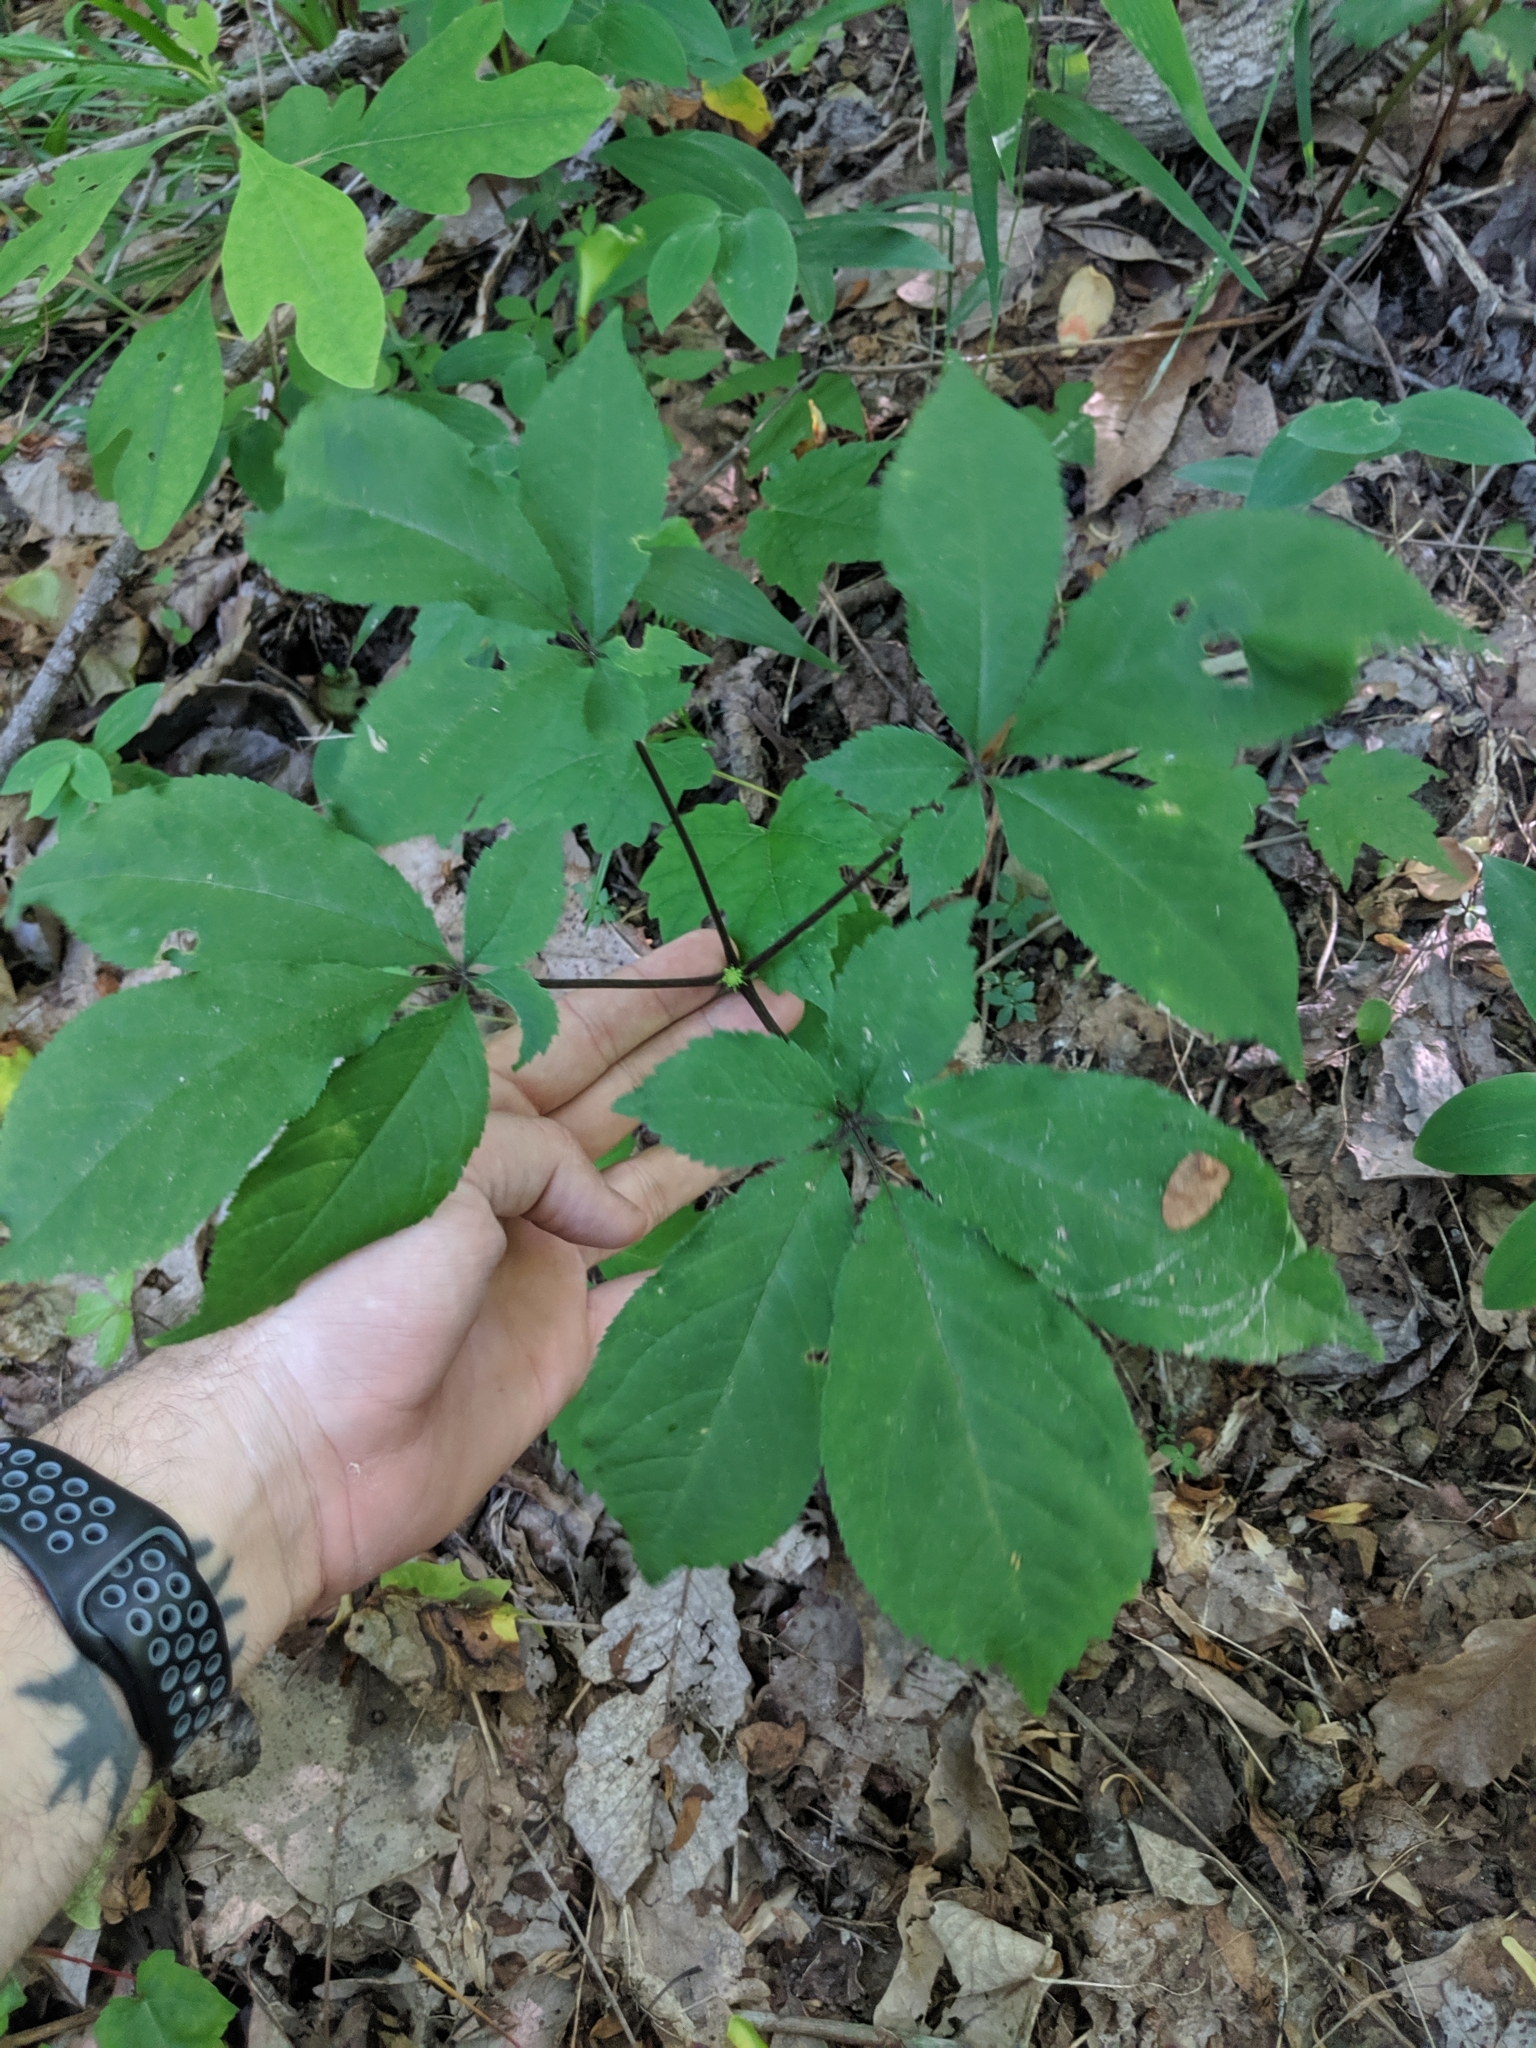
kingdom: Plantae
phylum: Tracheophyta
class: Magnoliopsida
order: Apiales
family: Araliaceae
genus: Panax
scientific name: Panax quinquefolius
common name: American ginseng
